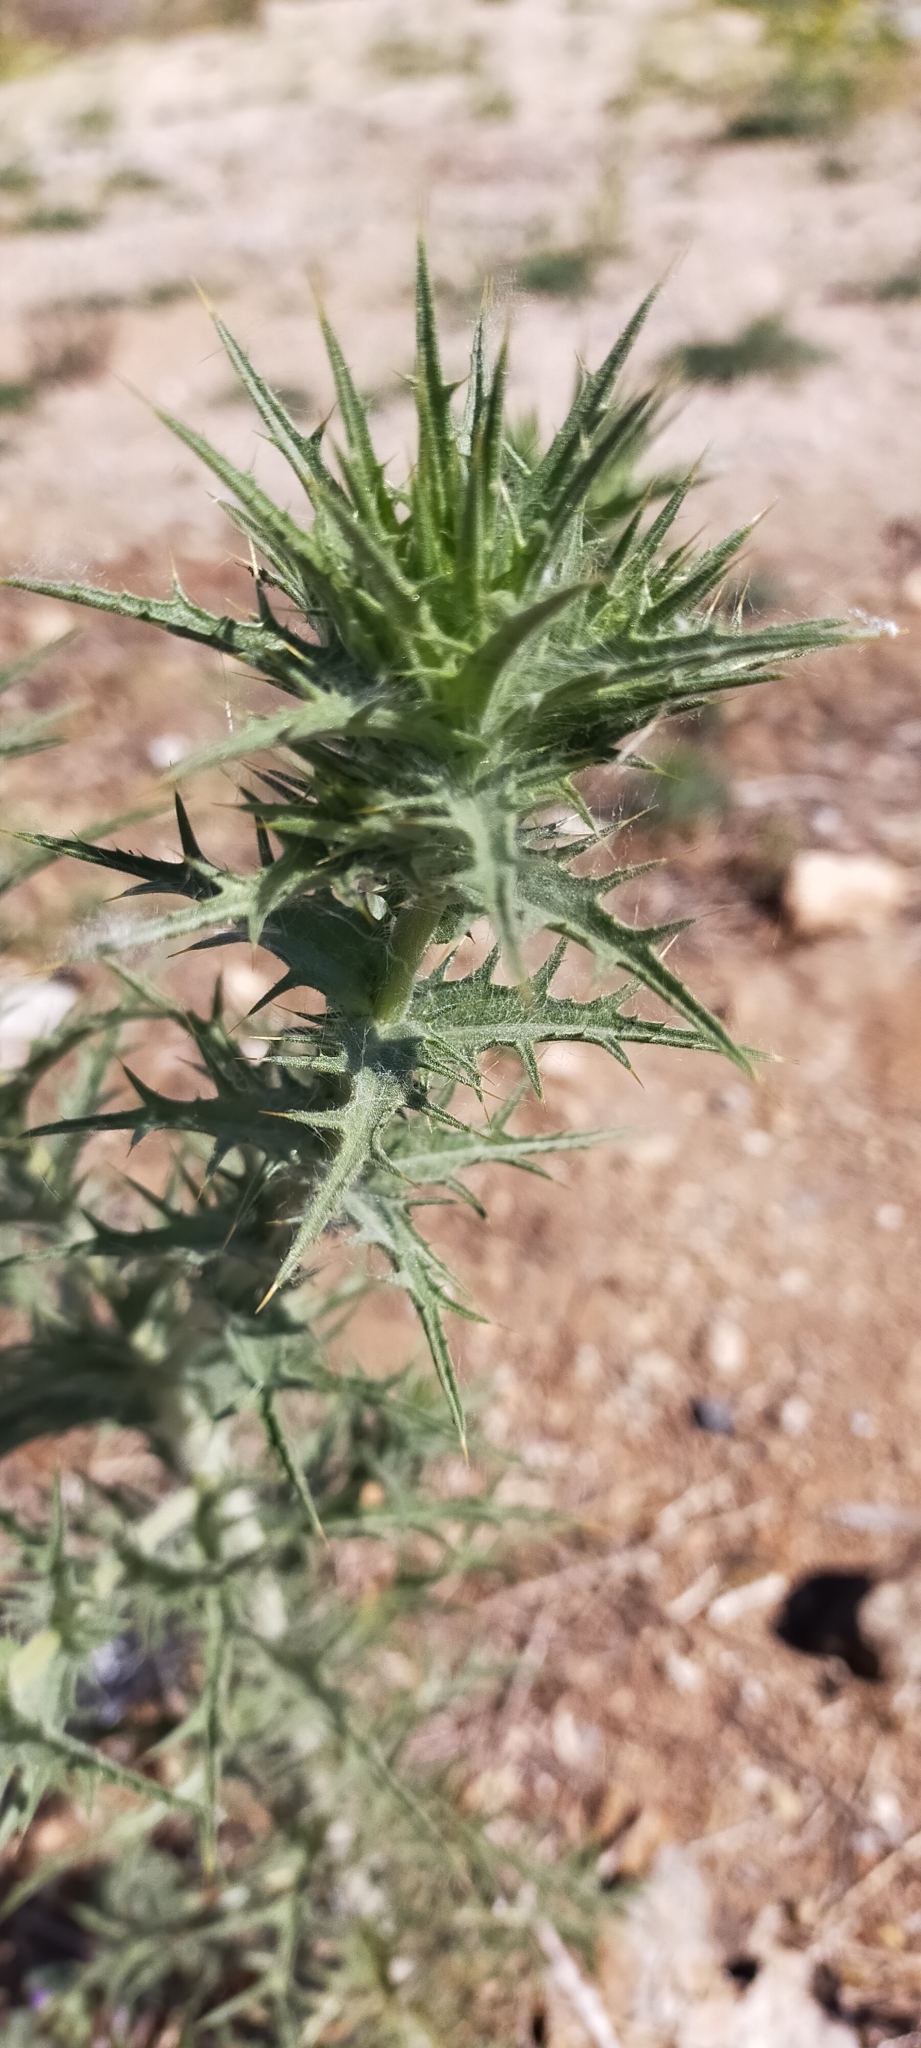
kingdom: Plantae
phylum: Tracheophyta
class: Magnoliopsida
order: Asterales
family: Asteraceae
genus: Carthamus
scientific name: Carthamus lanatus
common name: Downy safflower
